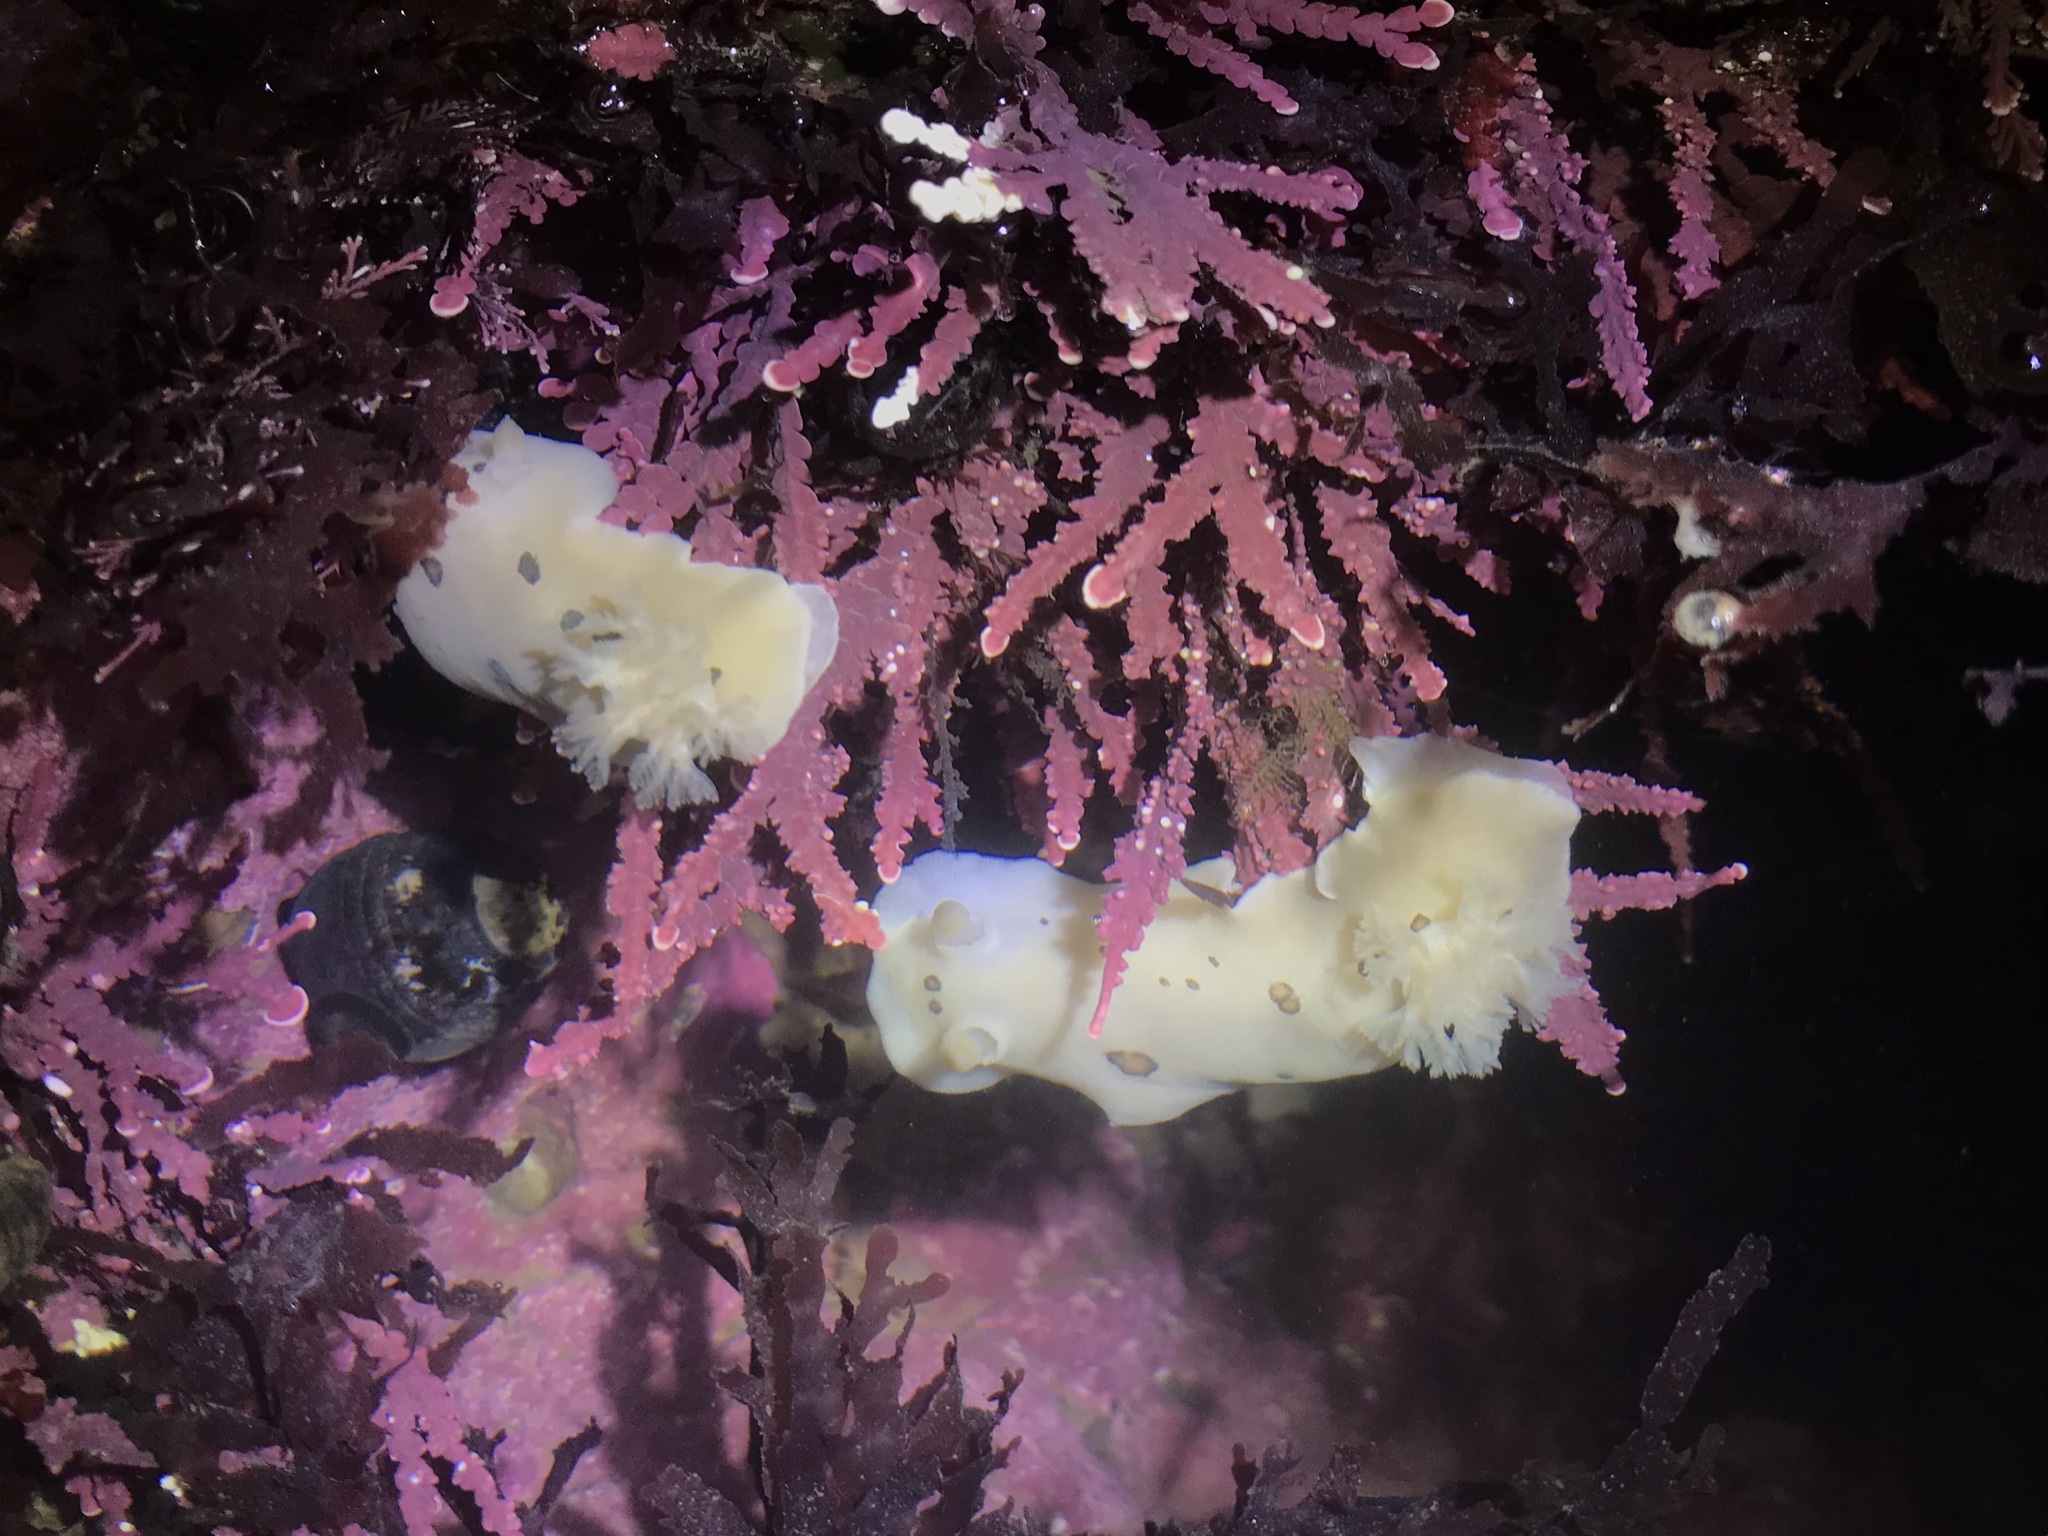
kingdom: Animalia
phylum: Mollusca
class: Gastropoda
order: Nudibranchia
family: Discodorididae
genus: Diaulula
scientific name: Diaulula sandiegensis
